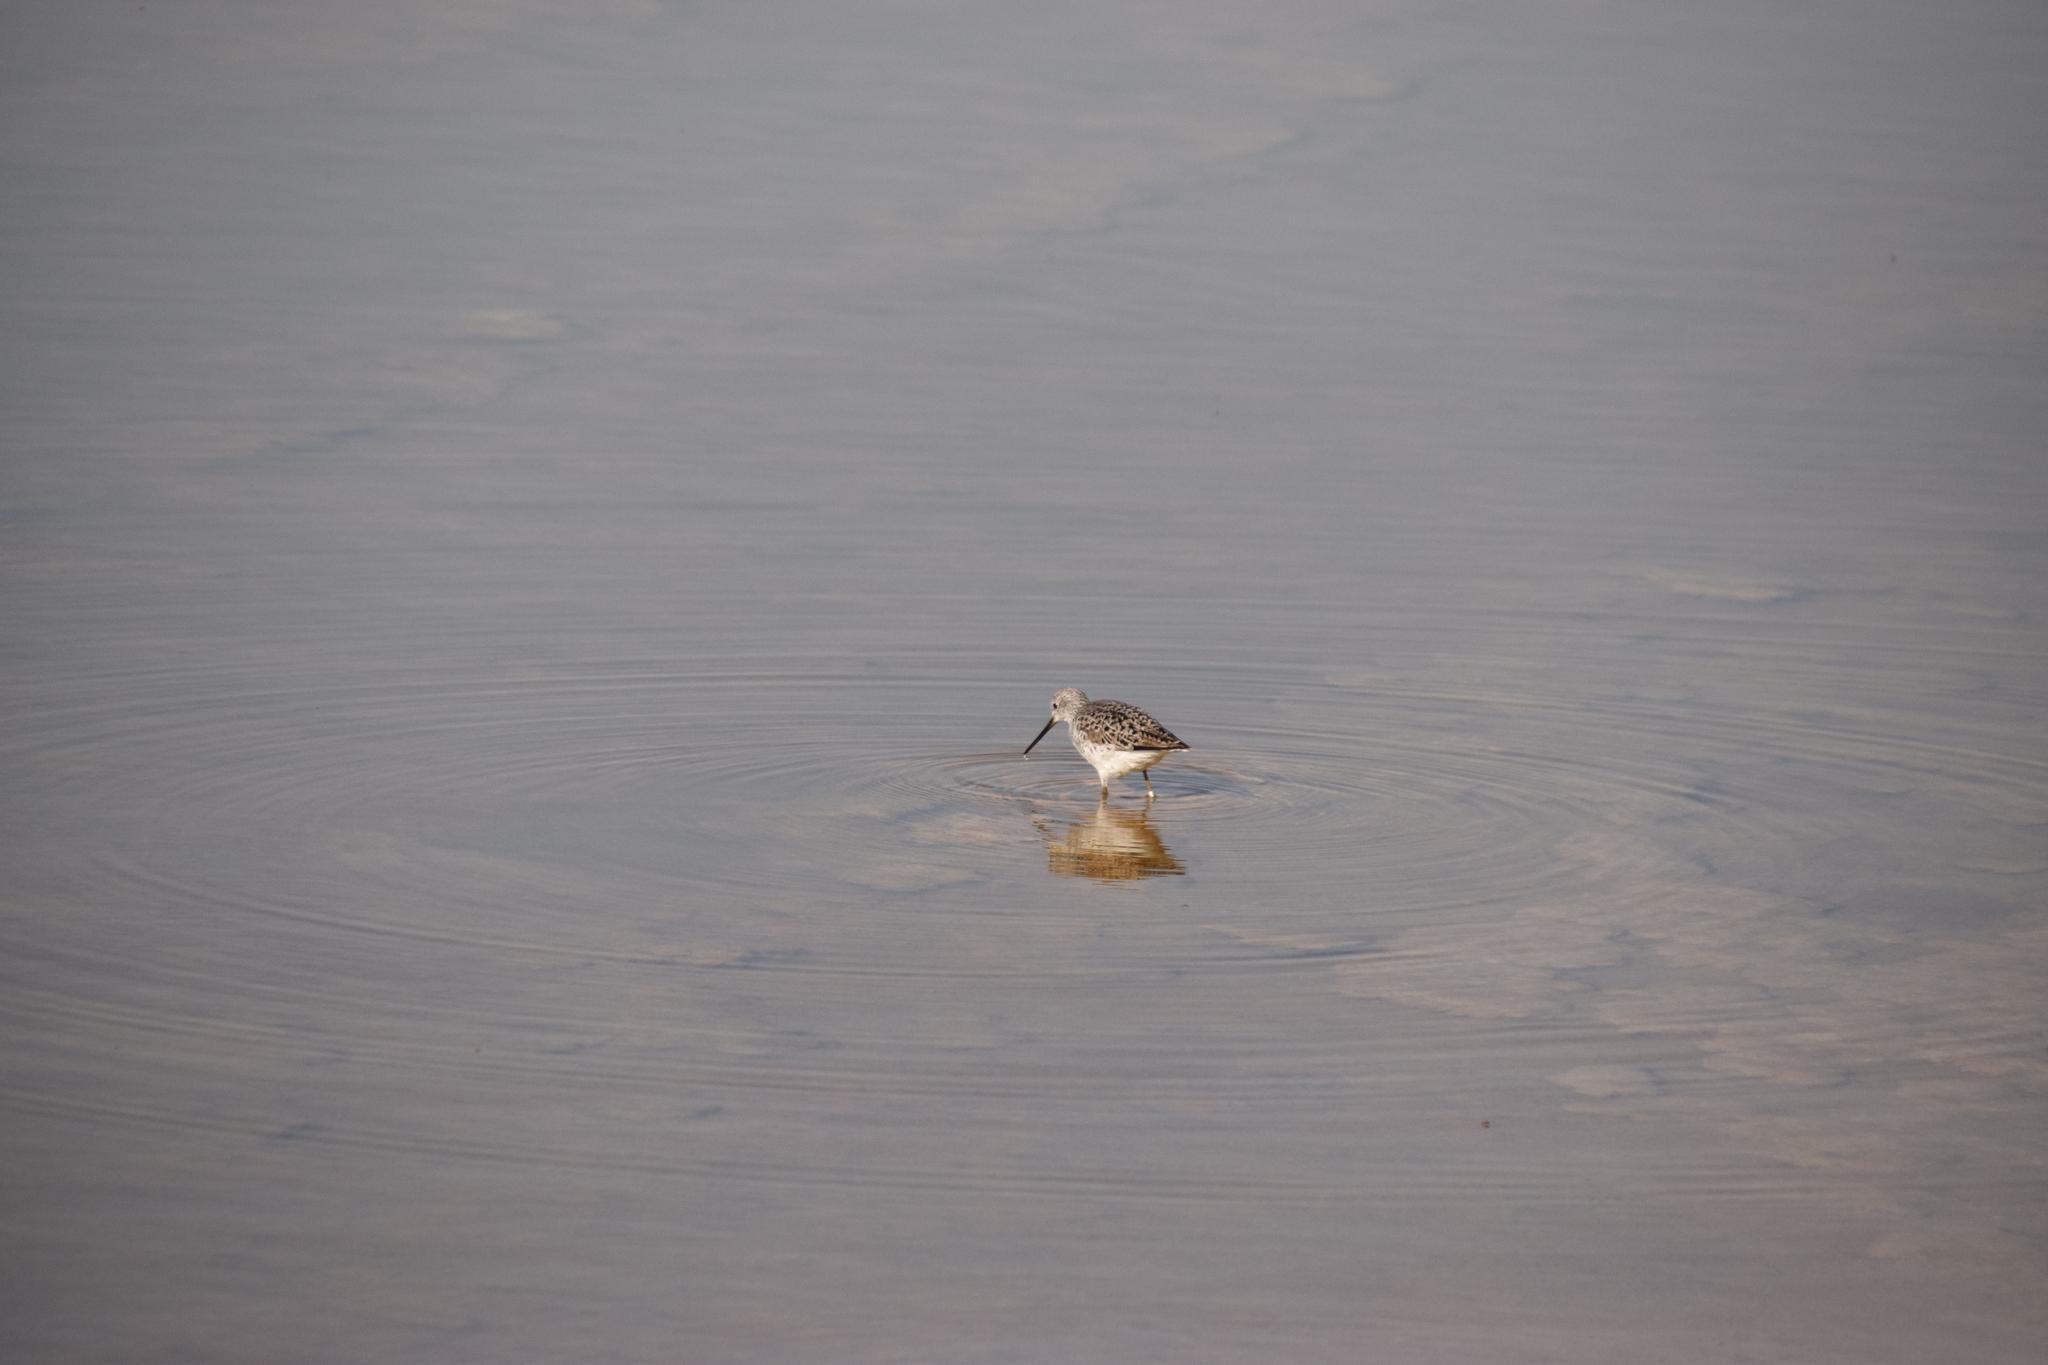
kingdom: Animalia
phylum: Chordata
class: Aves
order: Charadriiformes
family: Scolopacidae
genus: Tringa
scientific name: Tringa nebularia
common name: Common greenshank
